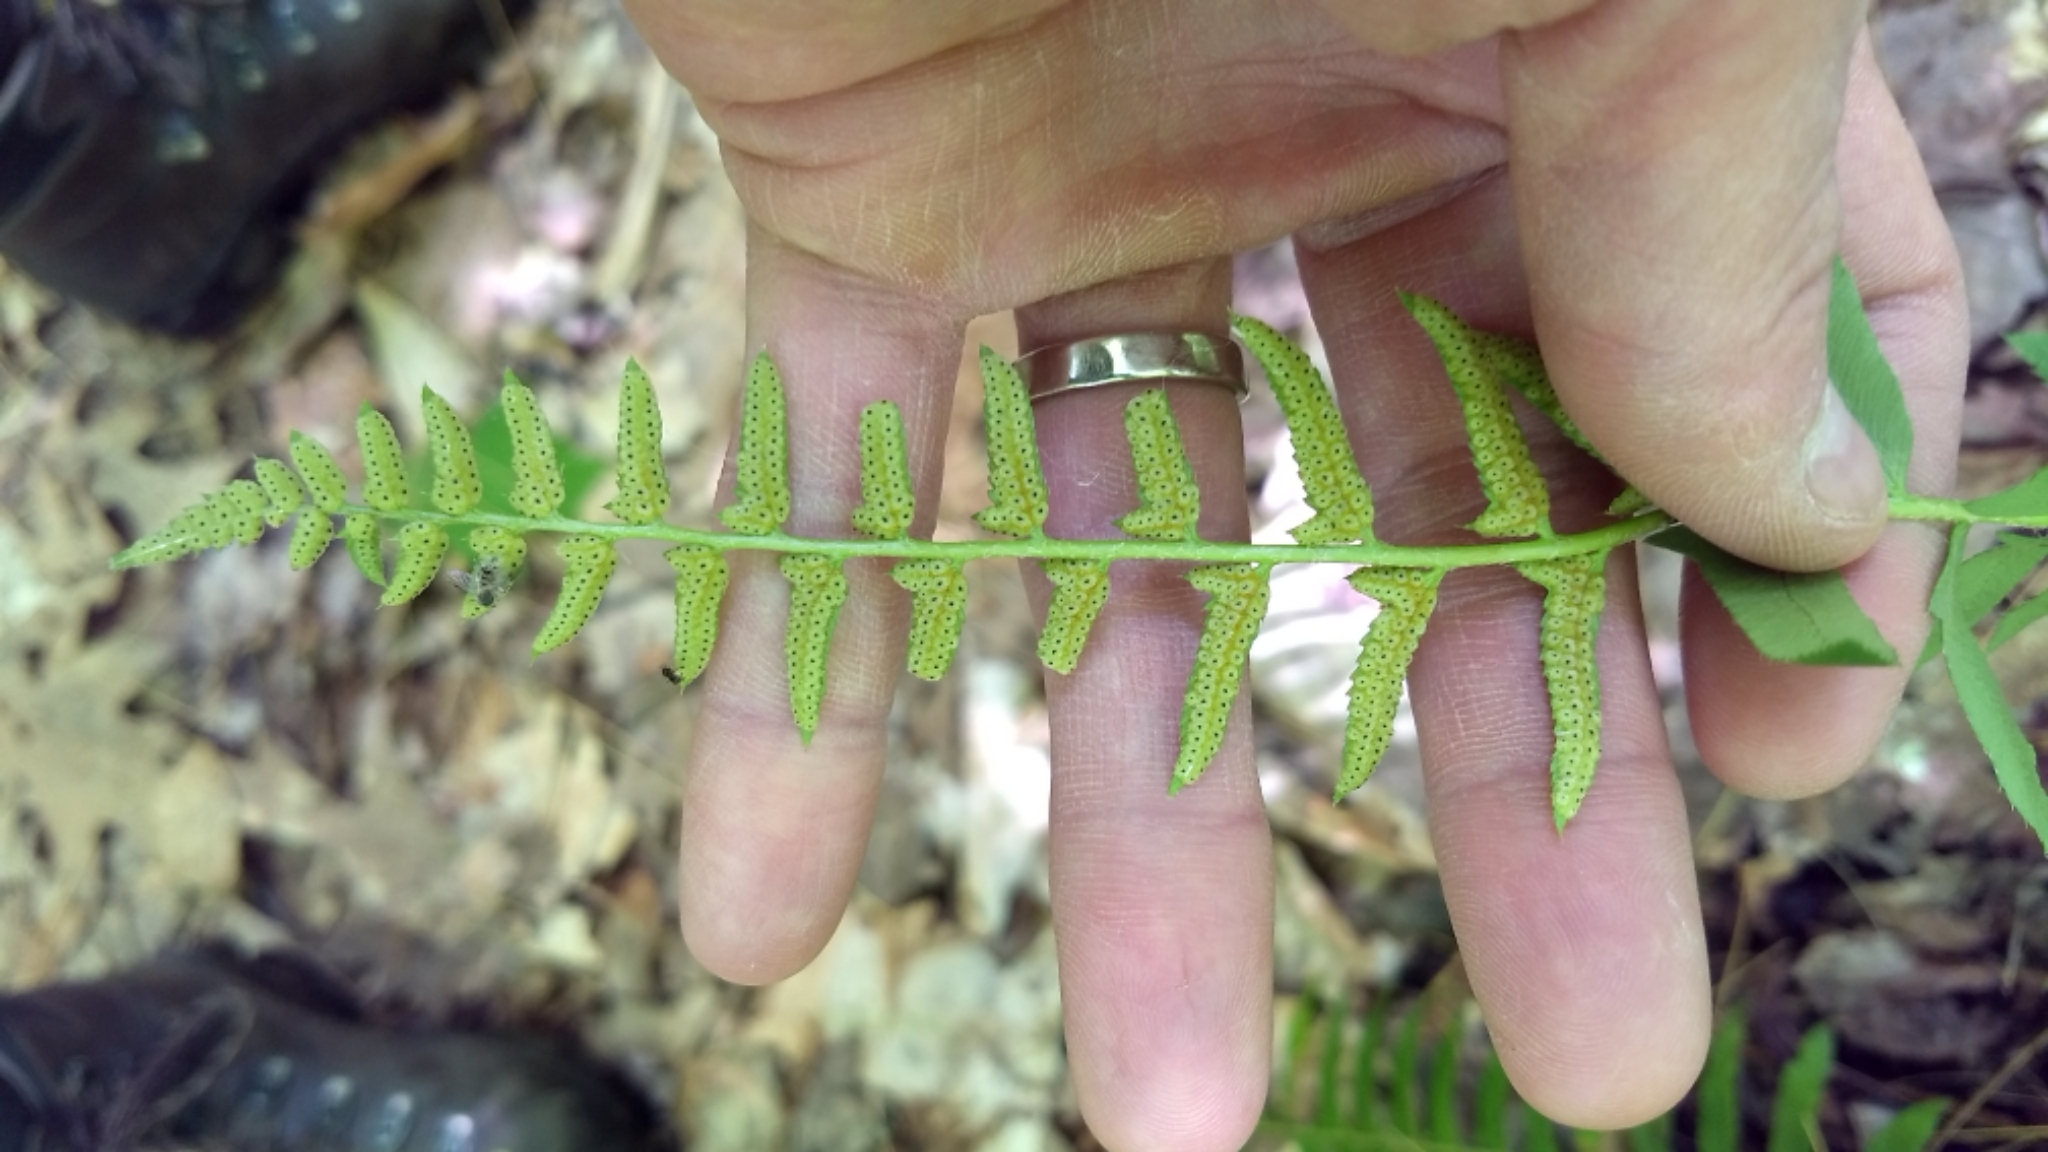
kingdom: Plantae
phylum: Tracheophyta
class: Polypodiopsida
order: Polypodiales
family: Dryopteridaceae
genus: Polystichum
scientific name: Polystichum acrostichoides
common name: Christmas fern
